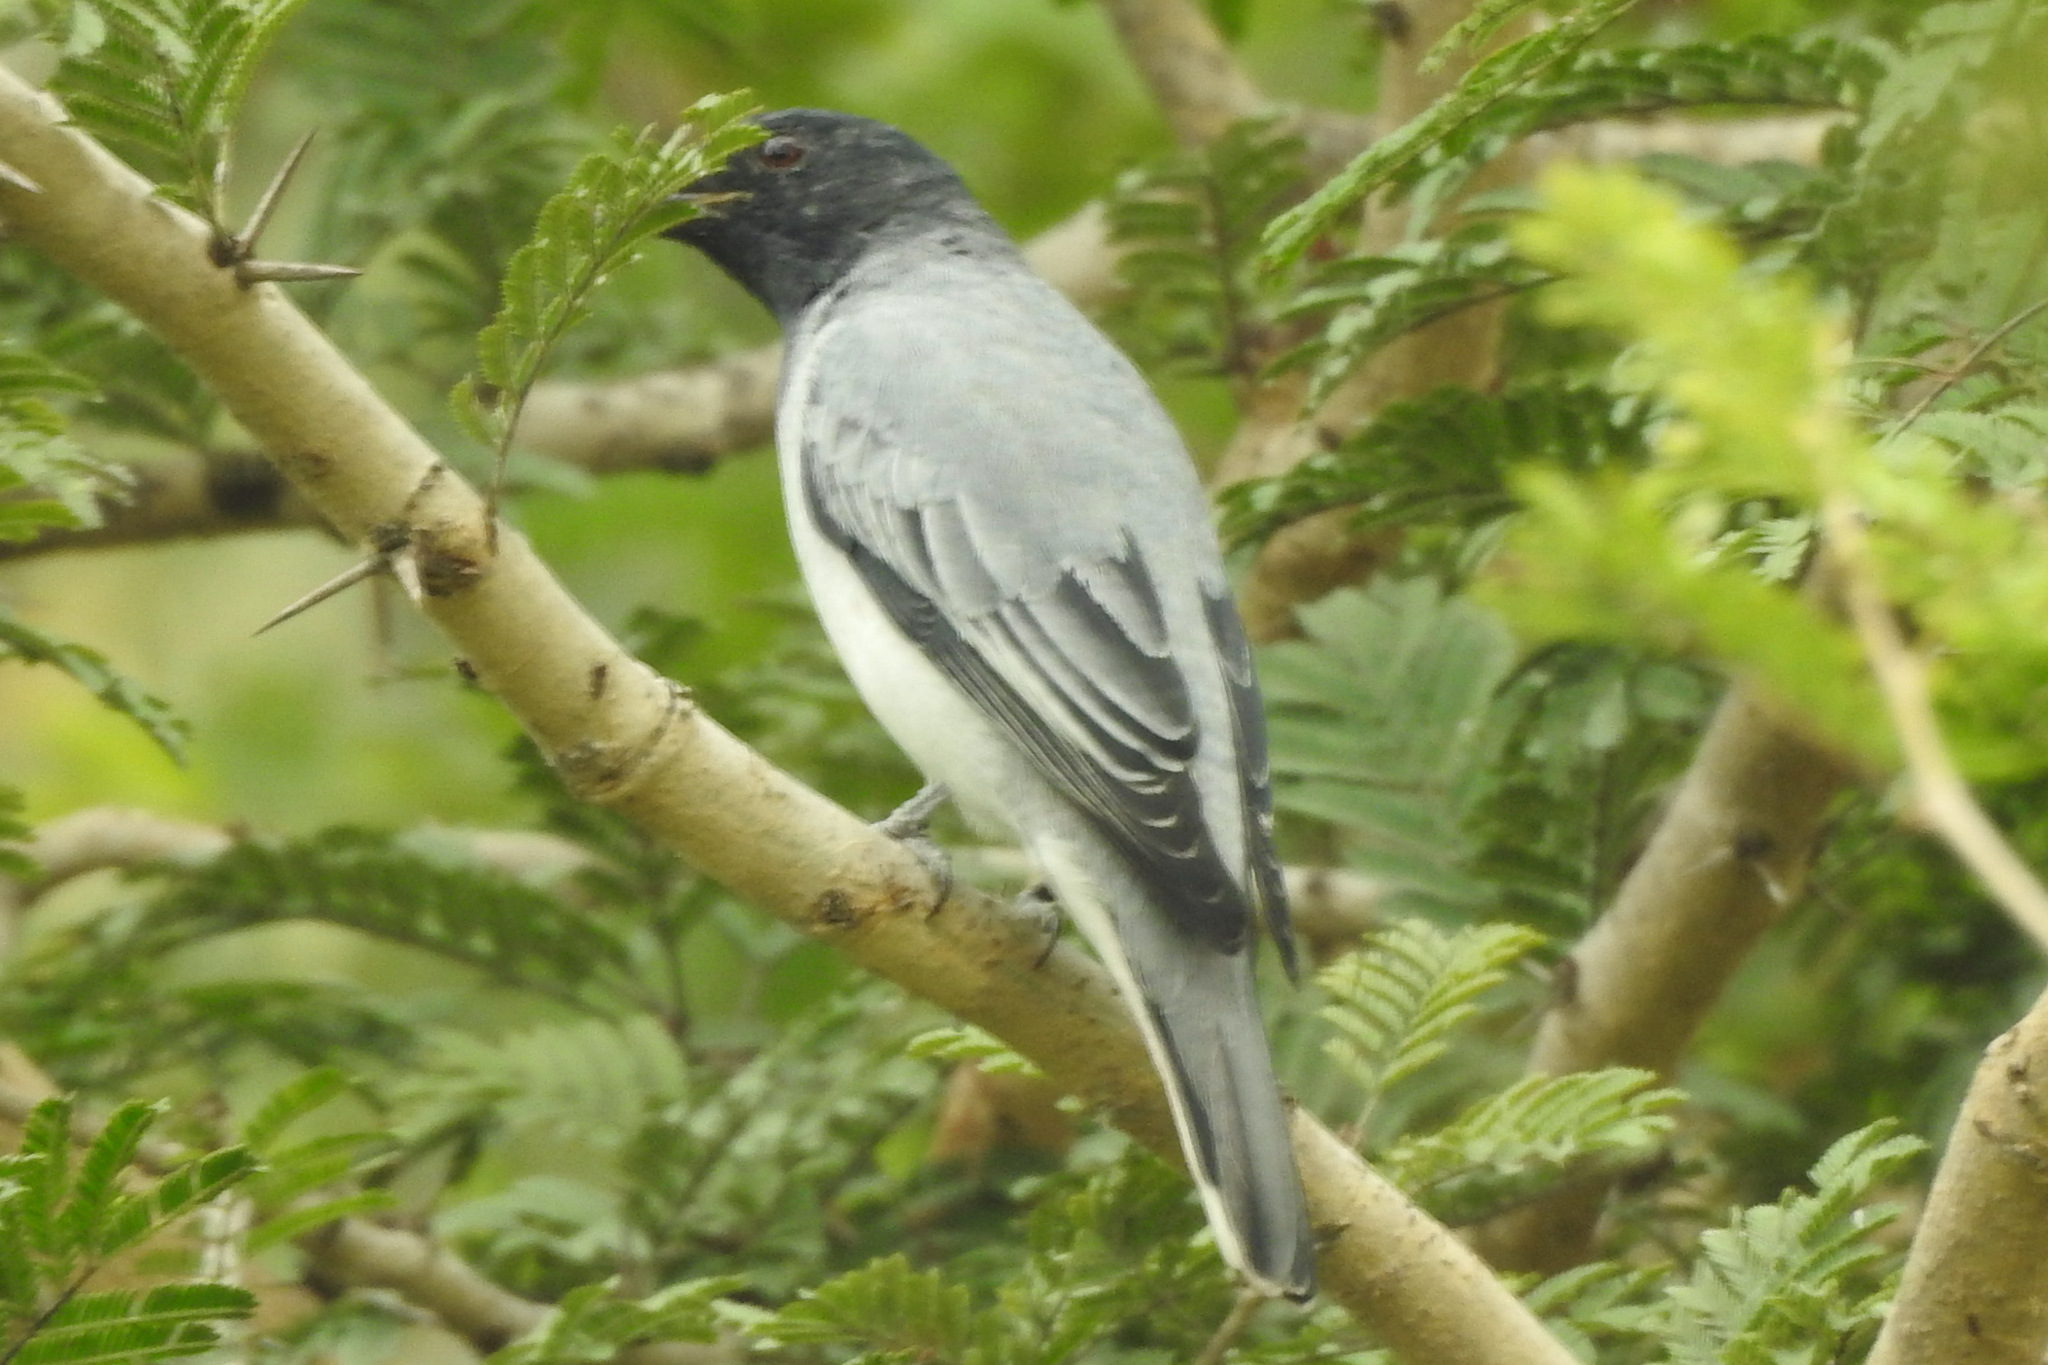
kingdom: Animalia
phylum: Chordata
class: Aves
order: Passeriformes
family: Campephagidae
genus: Coracina
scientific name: Coracina melanoptera
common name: Black-headed cuckooshrike
